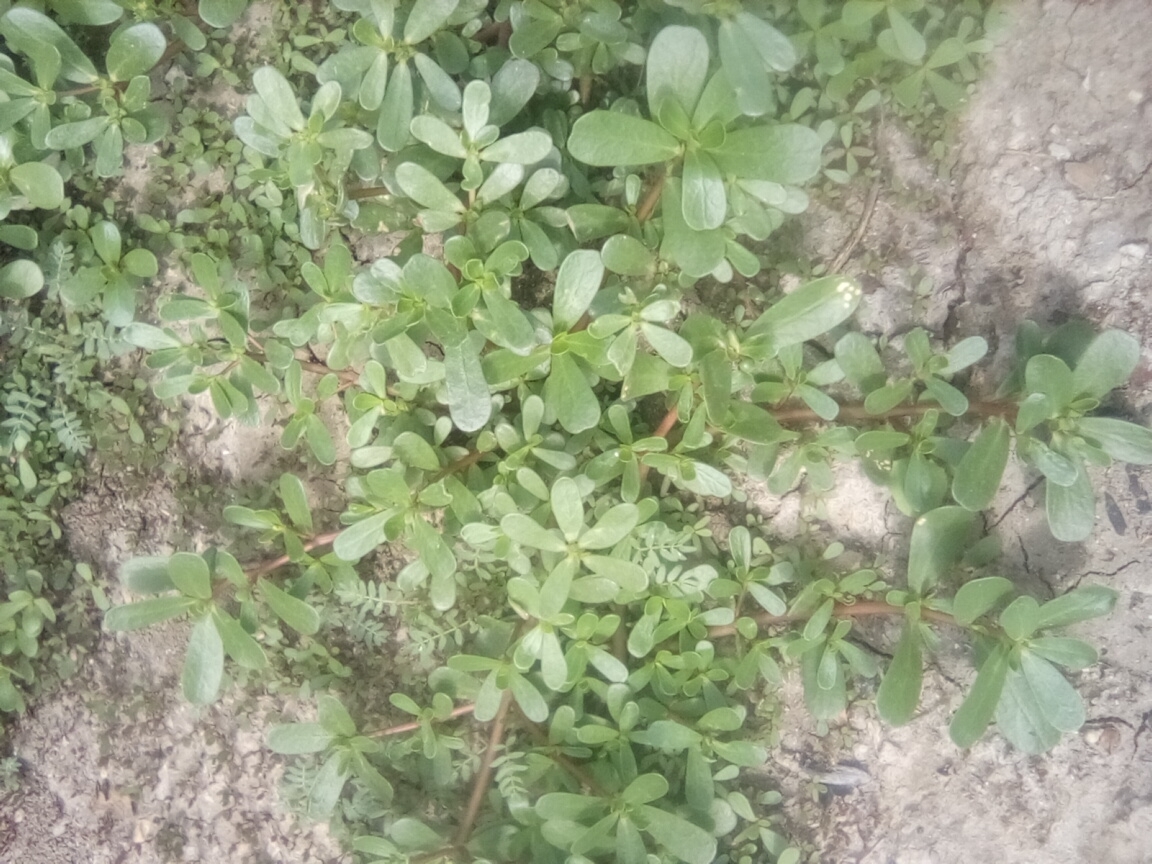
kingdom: Plantae
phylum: Tracheophyta
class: Magnoliopsida
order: Caryophyllales
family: Portulacaceae
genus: Portulaca
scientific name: Portulaca oleracea
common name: Common purslane
